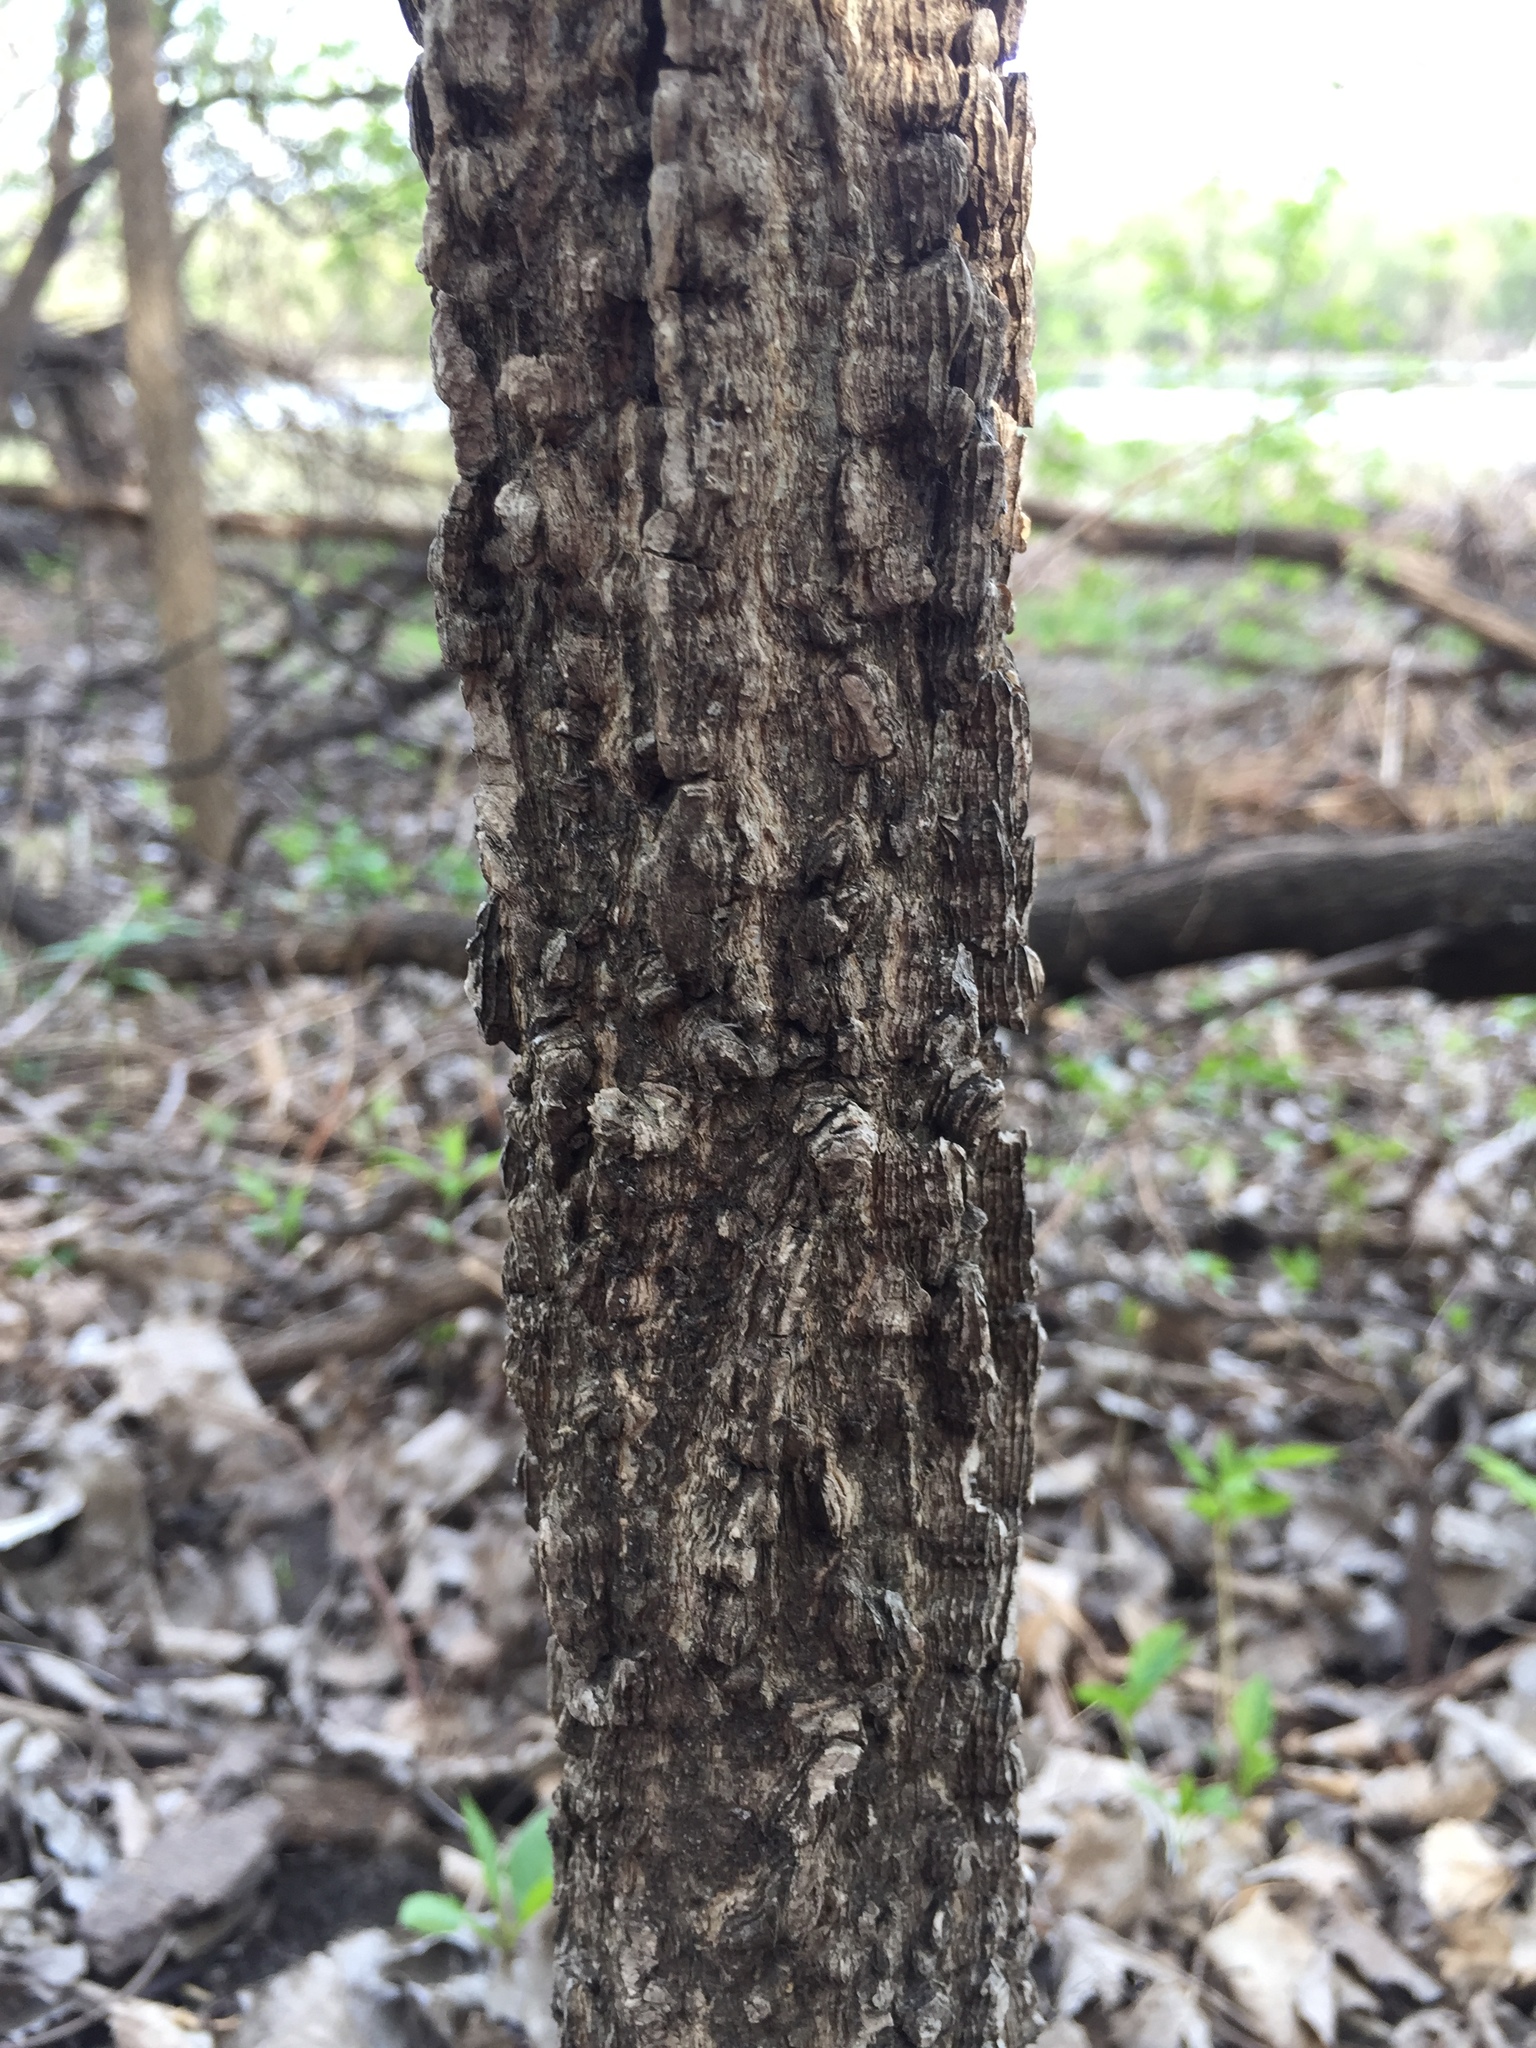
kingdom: Plantae
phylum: Tracheophyta
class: Magnoliopsida
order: Rosales
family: Cannabaceae
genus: Celtis
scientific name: Celtis occidentalis
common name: Common hackberry
